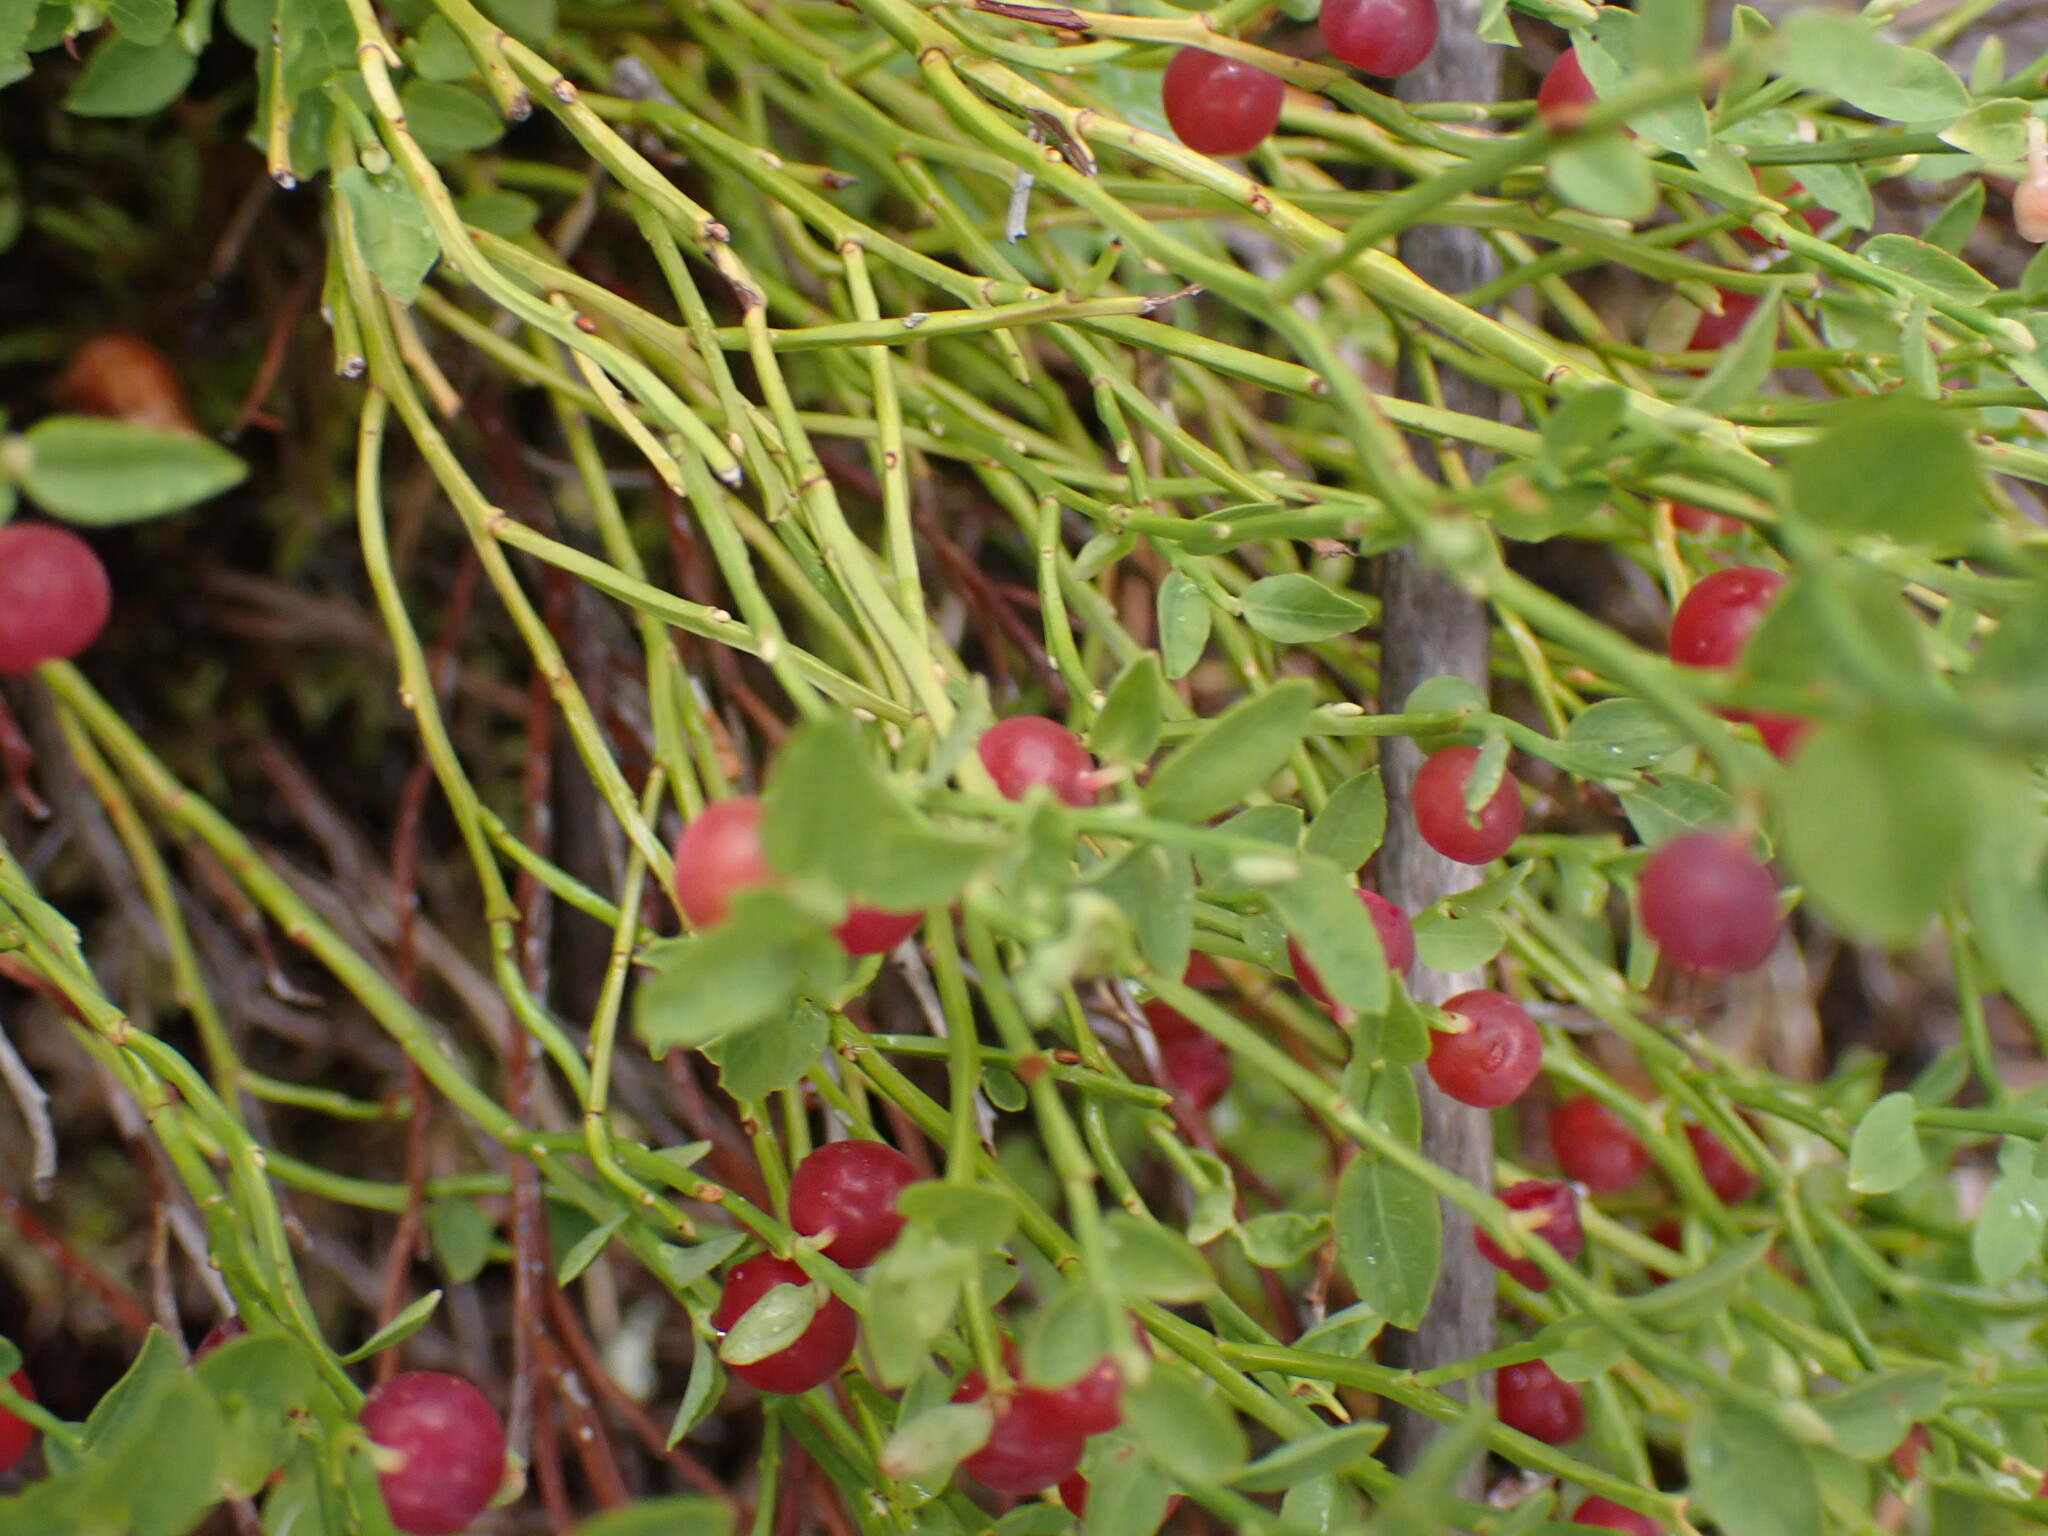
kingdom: Plantae
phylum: Tracheophyta
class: Magnoliopsida
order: Ericales
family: Ericaceae
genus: Vaccinium
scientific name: Vaccinium scoparium
